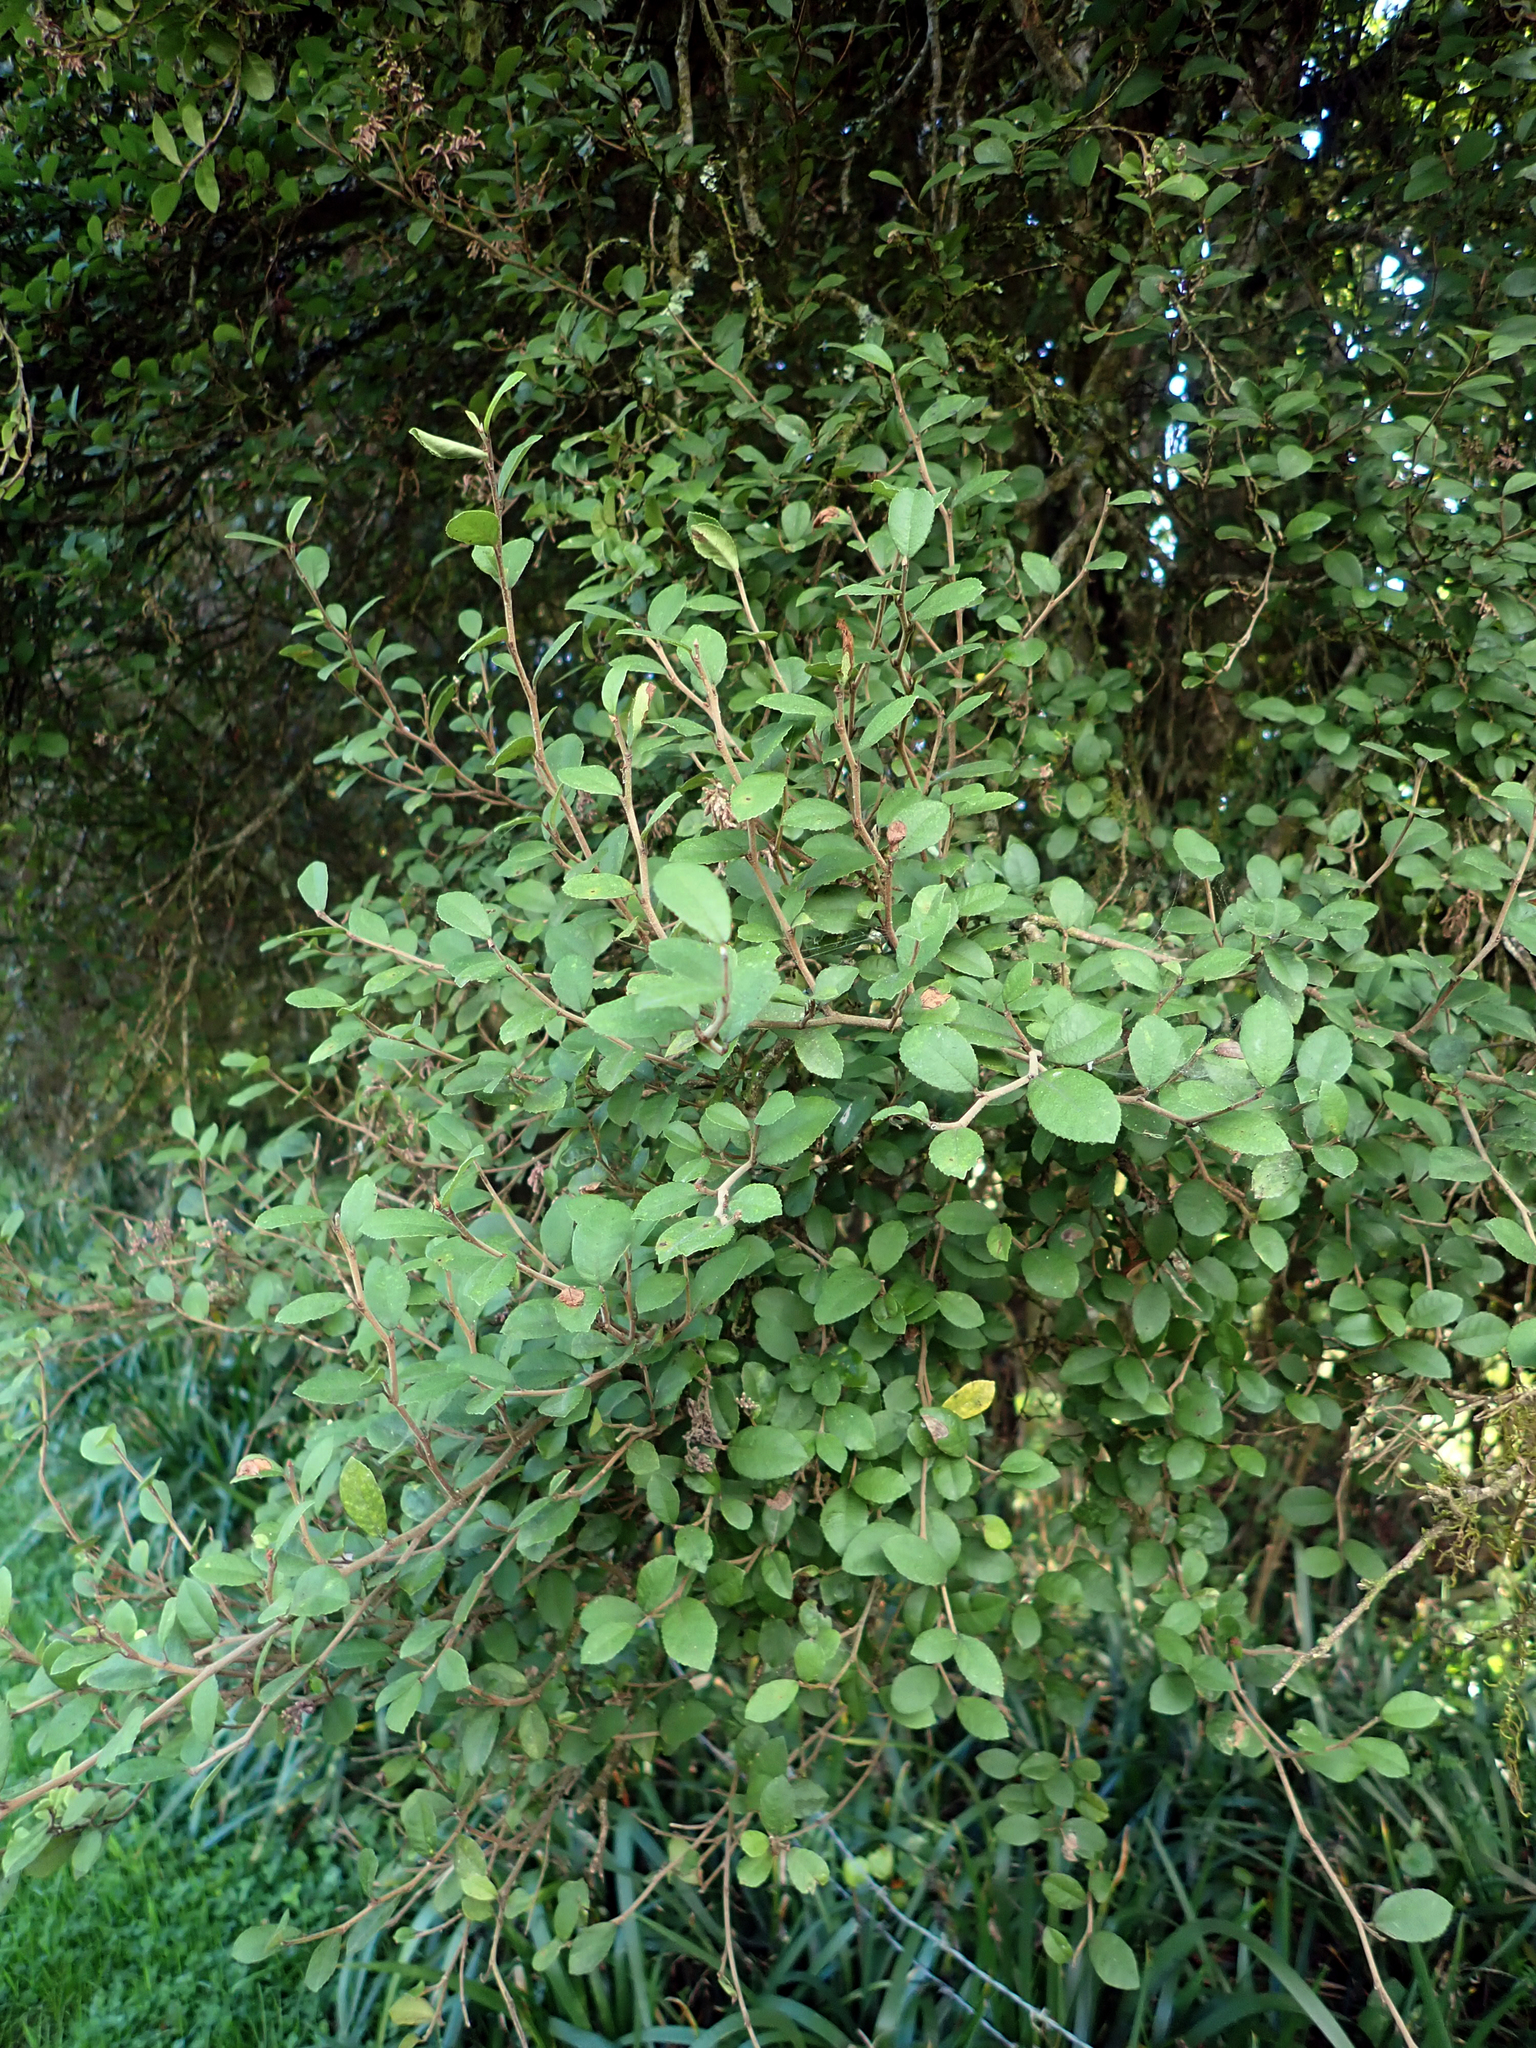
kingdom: Plantae
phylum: Tracheophyta
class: Magnoliopsida
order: Rosales
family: Moraceae
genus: Paratrophis
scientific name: Paratrophis microphylla
